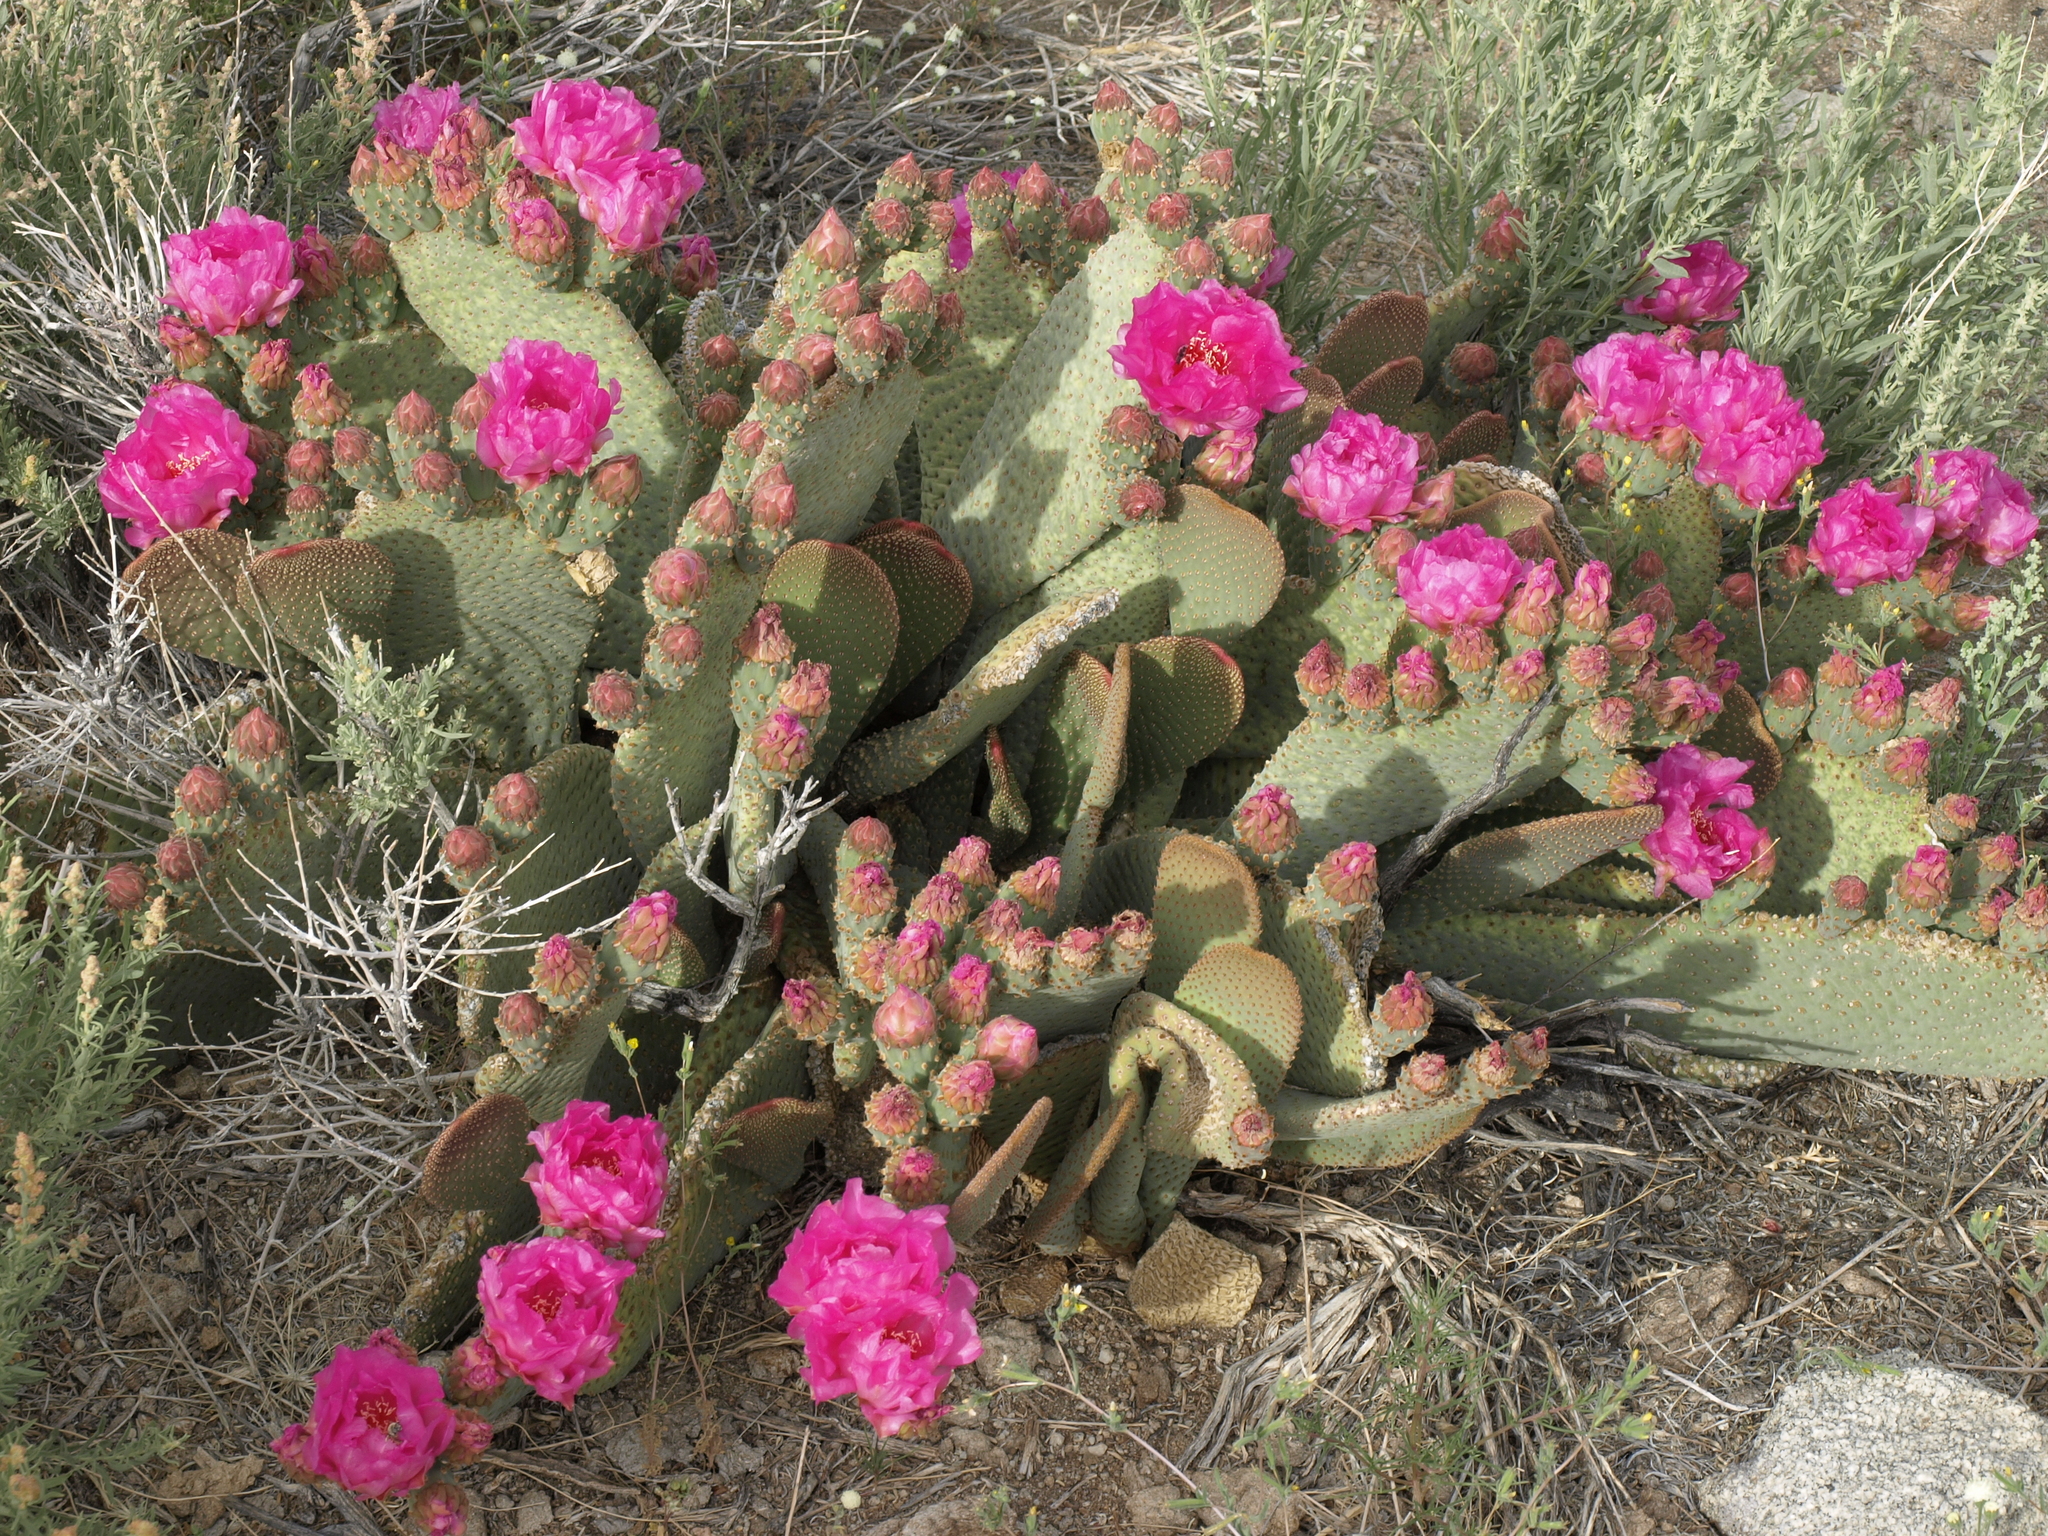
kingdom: Plantae
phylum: Tracheophyta
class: Magnoliopsida
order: Caryophyllales
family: Cactaceae
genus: Opuntia
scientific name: Opuntia basilaris
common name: Beavertail prickly-pear
